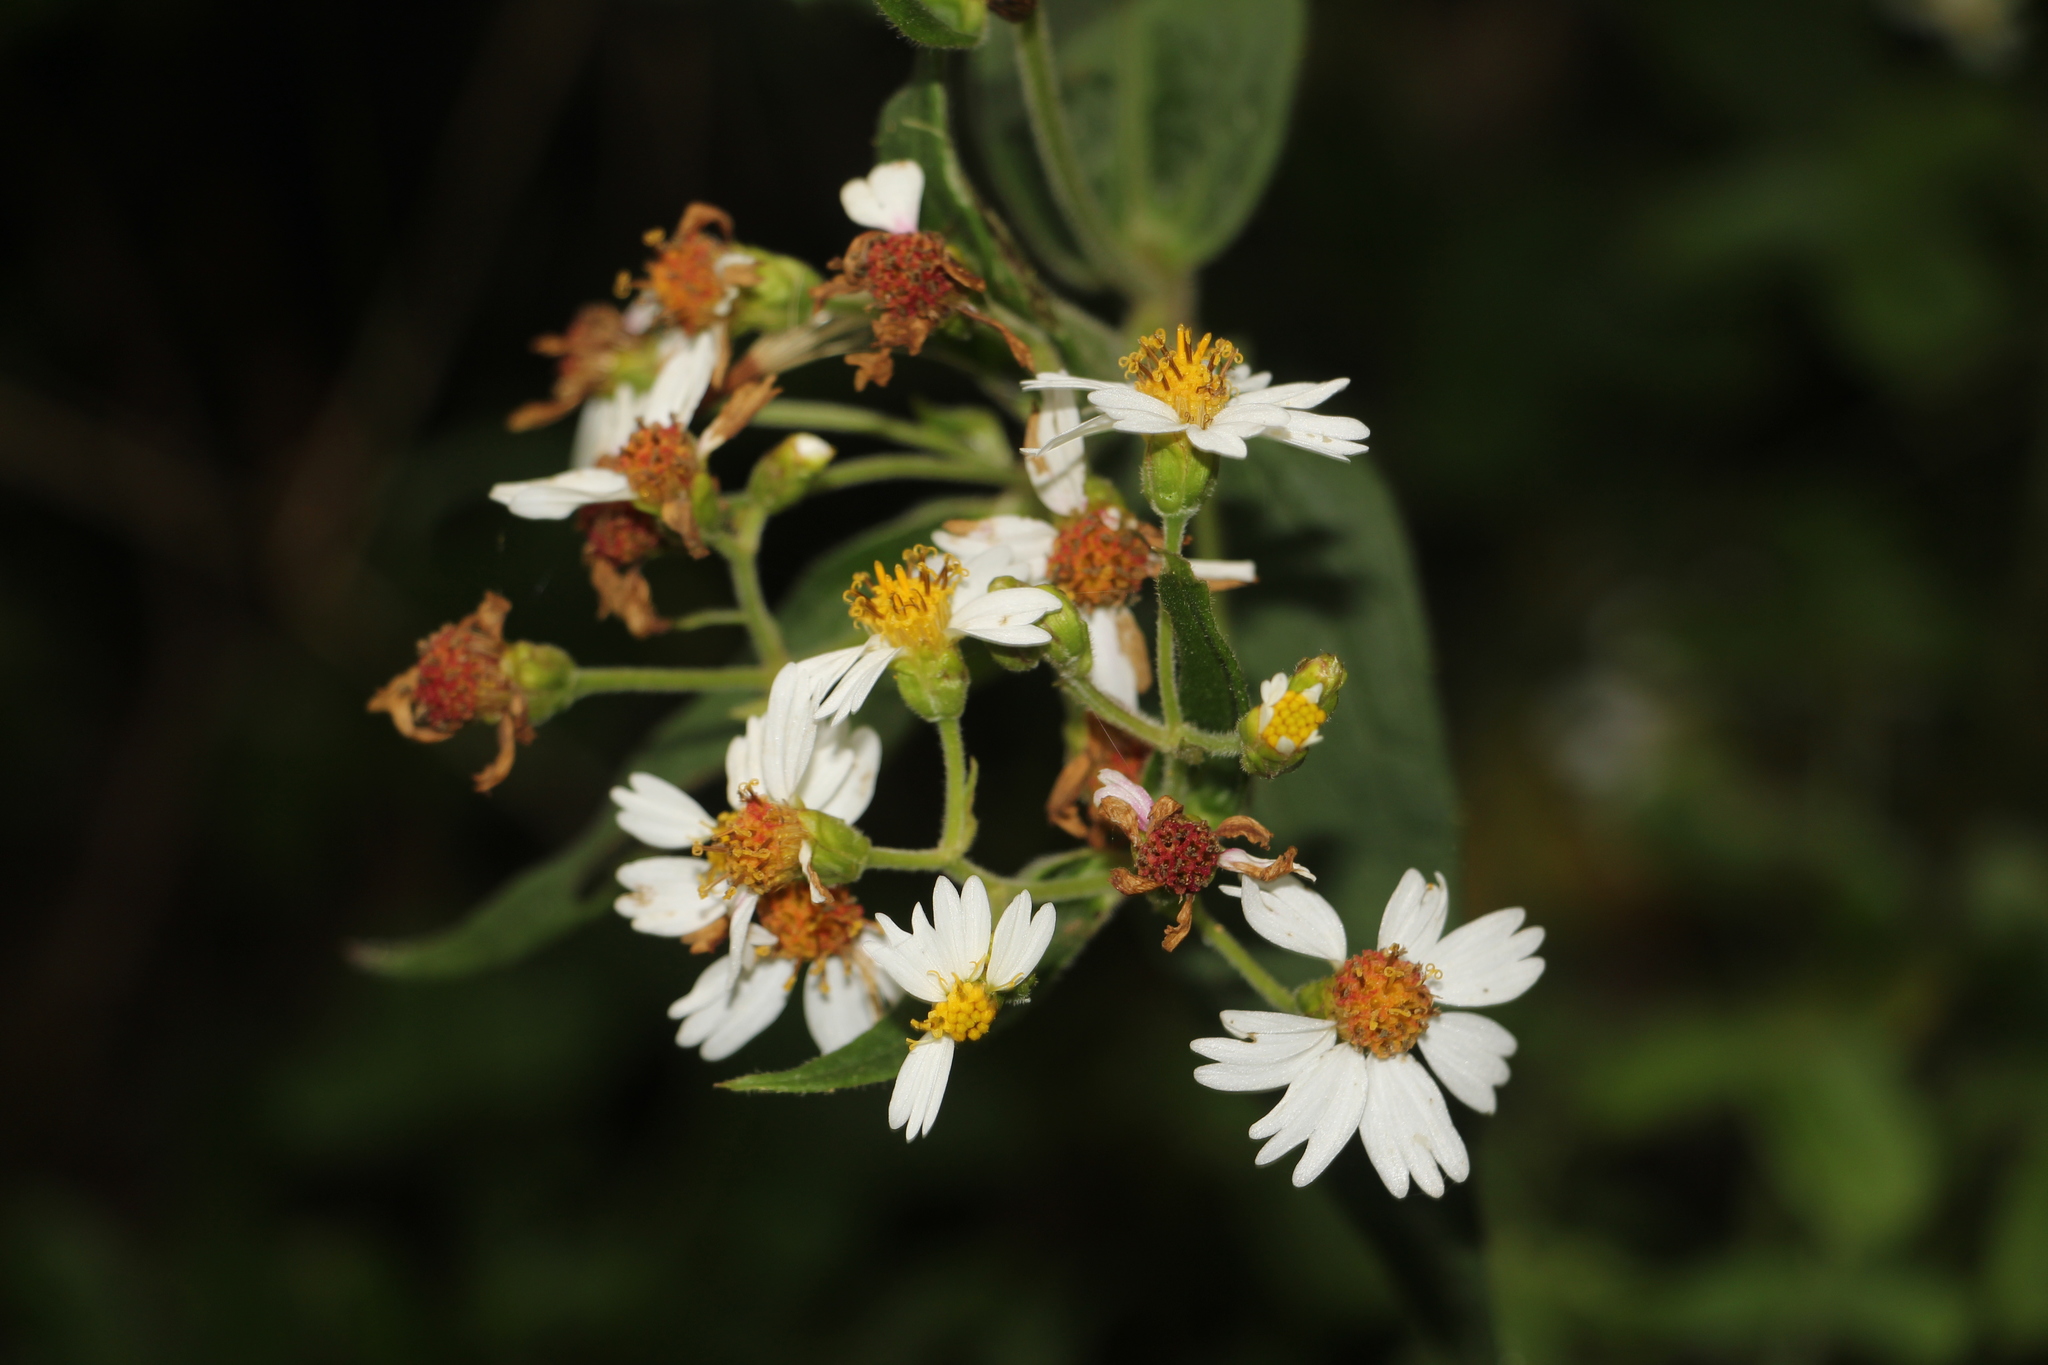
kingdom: Plantae
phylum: Tracheophyta
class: Magnoliopsida
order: Asterales
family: Asteraceae
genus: Alloispermum
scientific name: Alloispermum caracasanum
